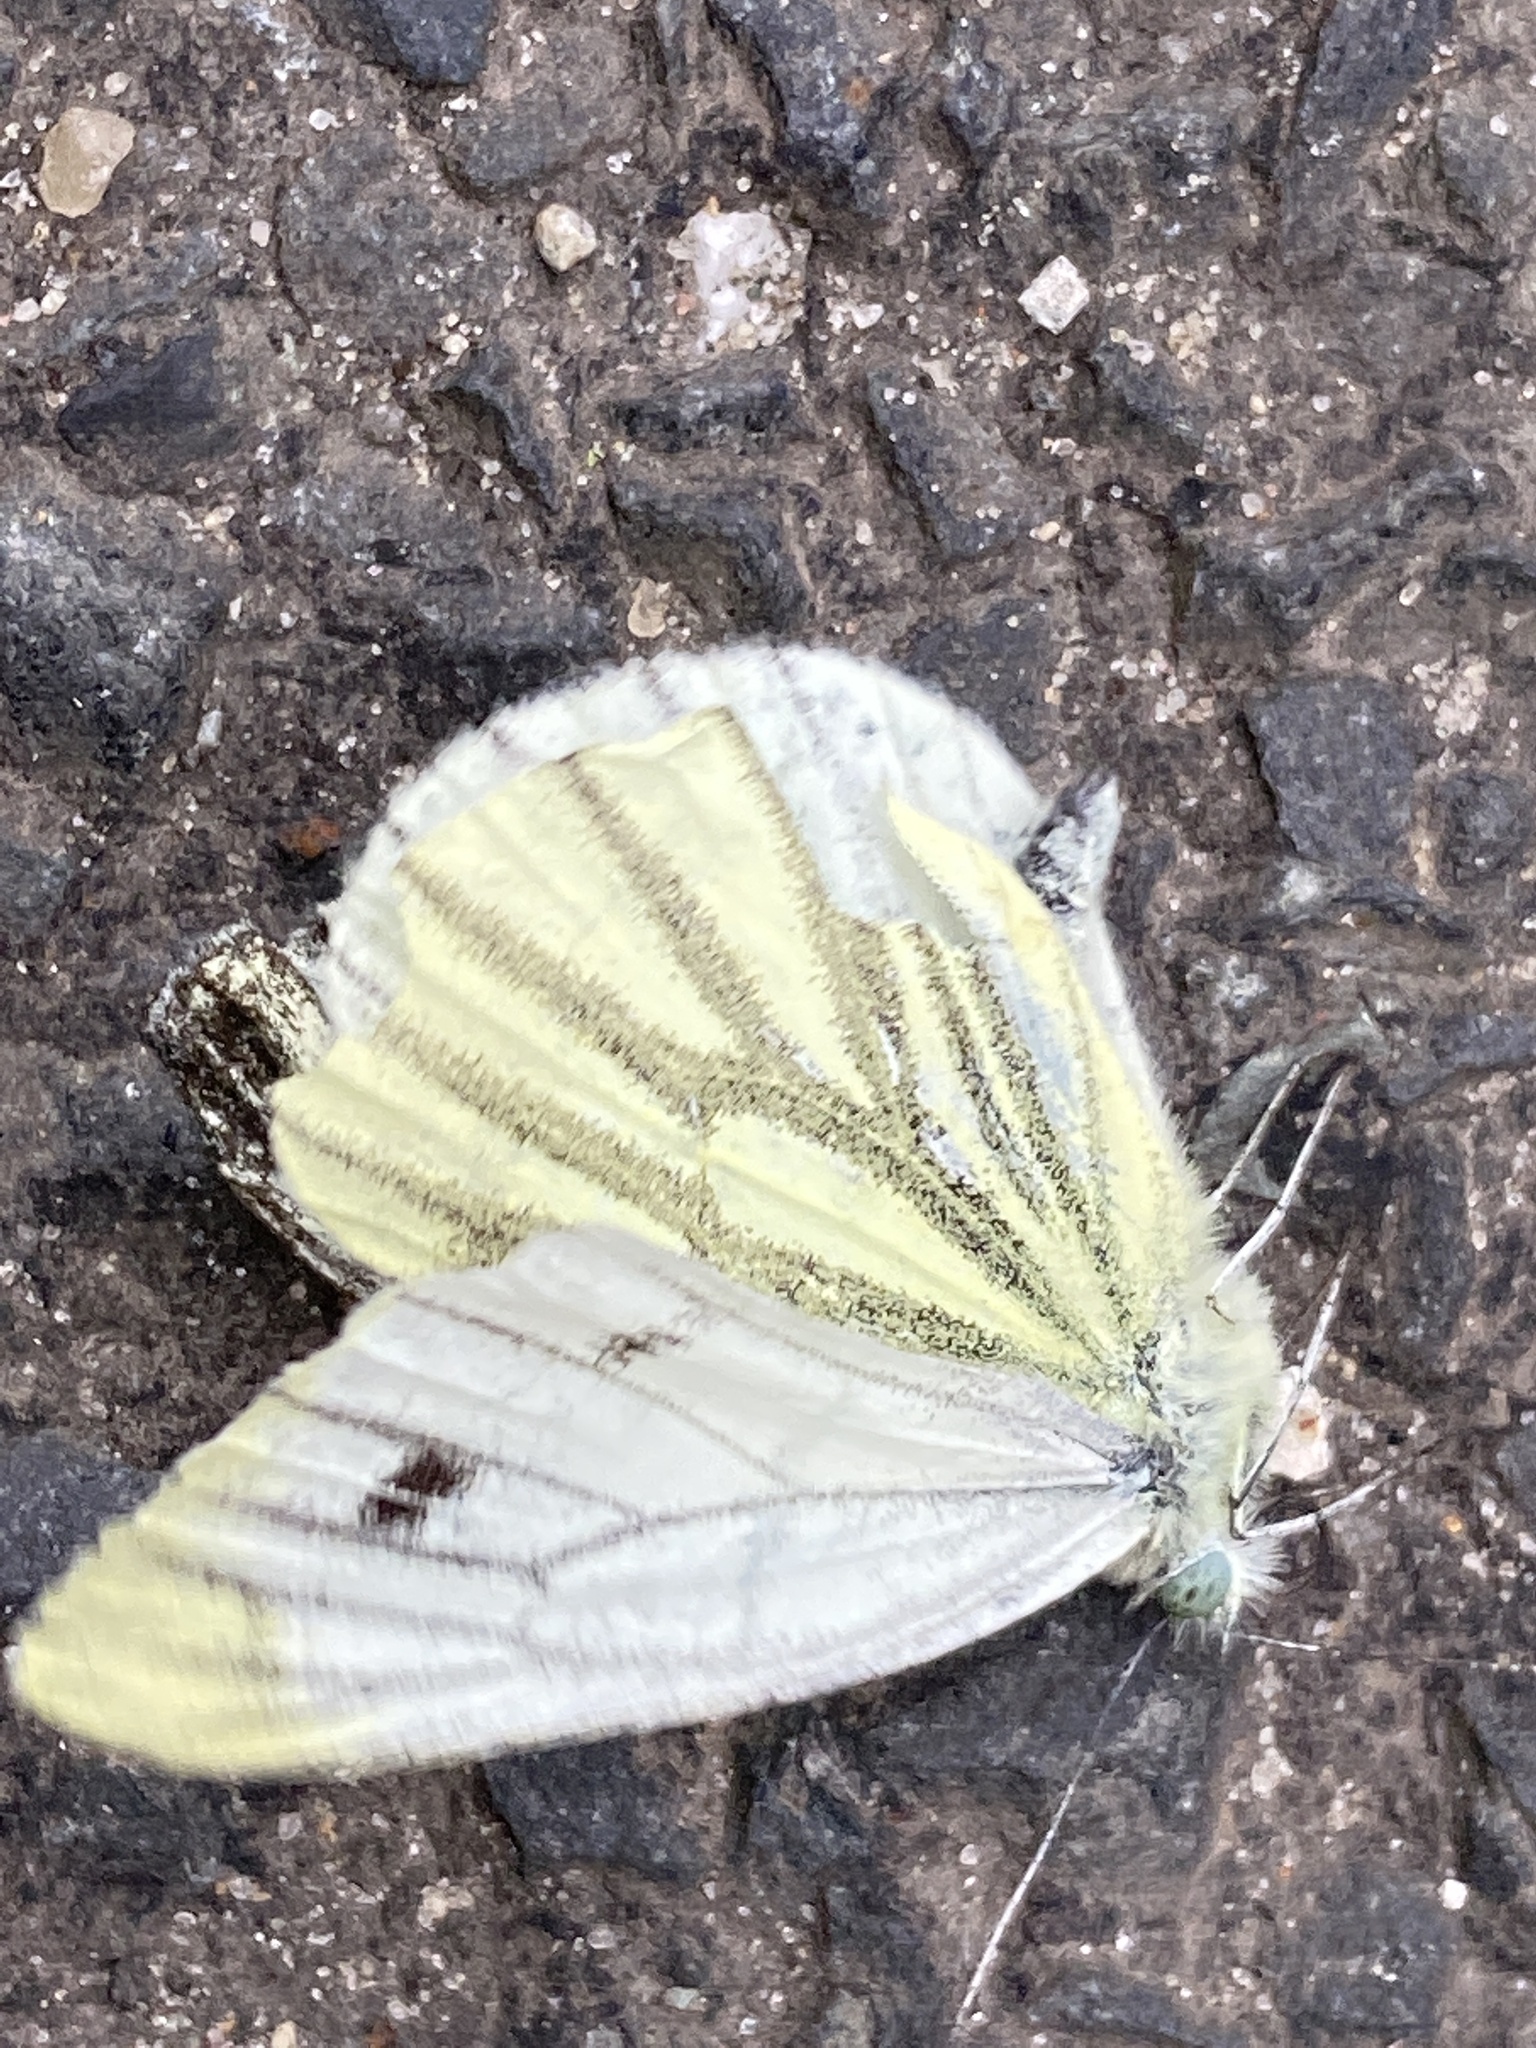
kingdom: Animalia
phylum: Arthropoda
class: Insecta
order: Lepidoptera
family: Pieridae
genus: Pieris
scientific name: Pieris napi
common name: Green-veined white
